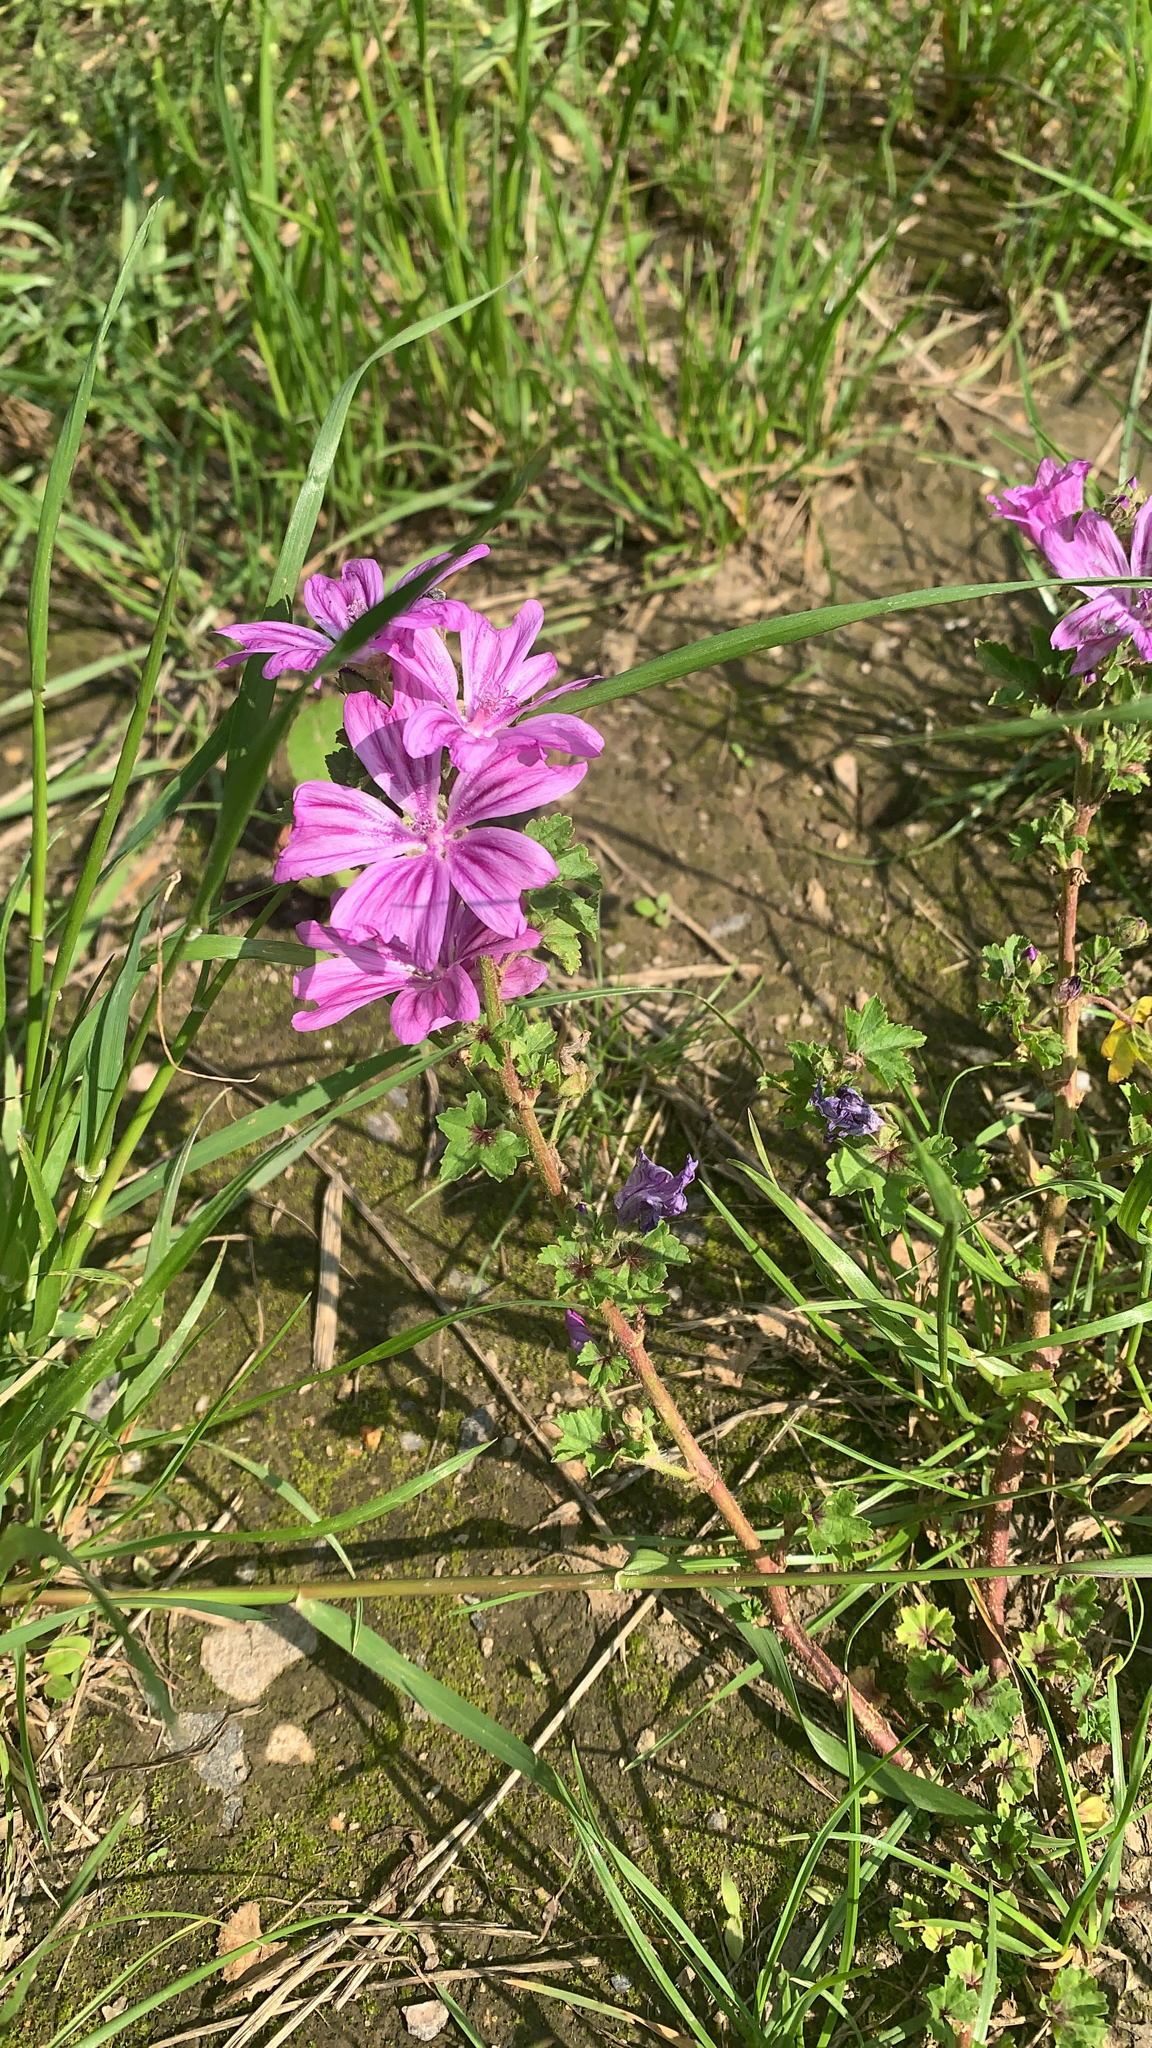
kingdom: Plantae
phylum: Tracheophyta
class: Magnoliopsida
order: Malvales
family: Malvaceae
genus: Malva
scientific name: Malva sylvestris
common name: Common mallow
